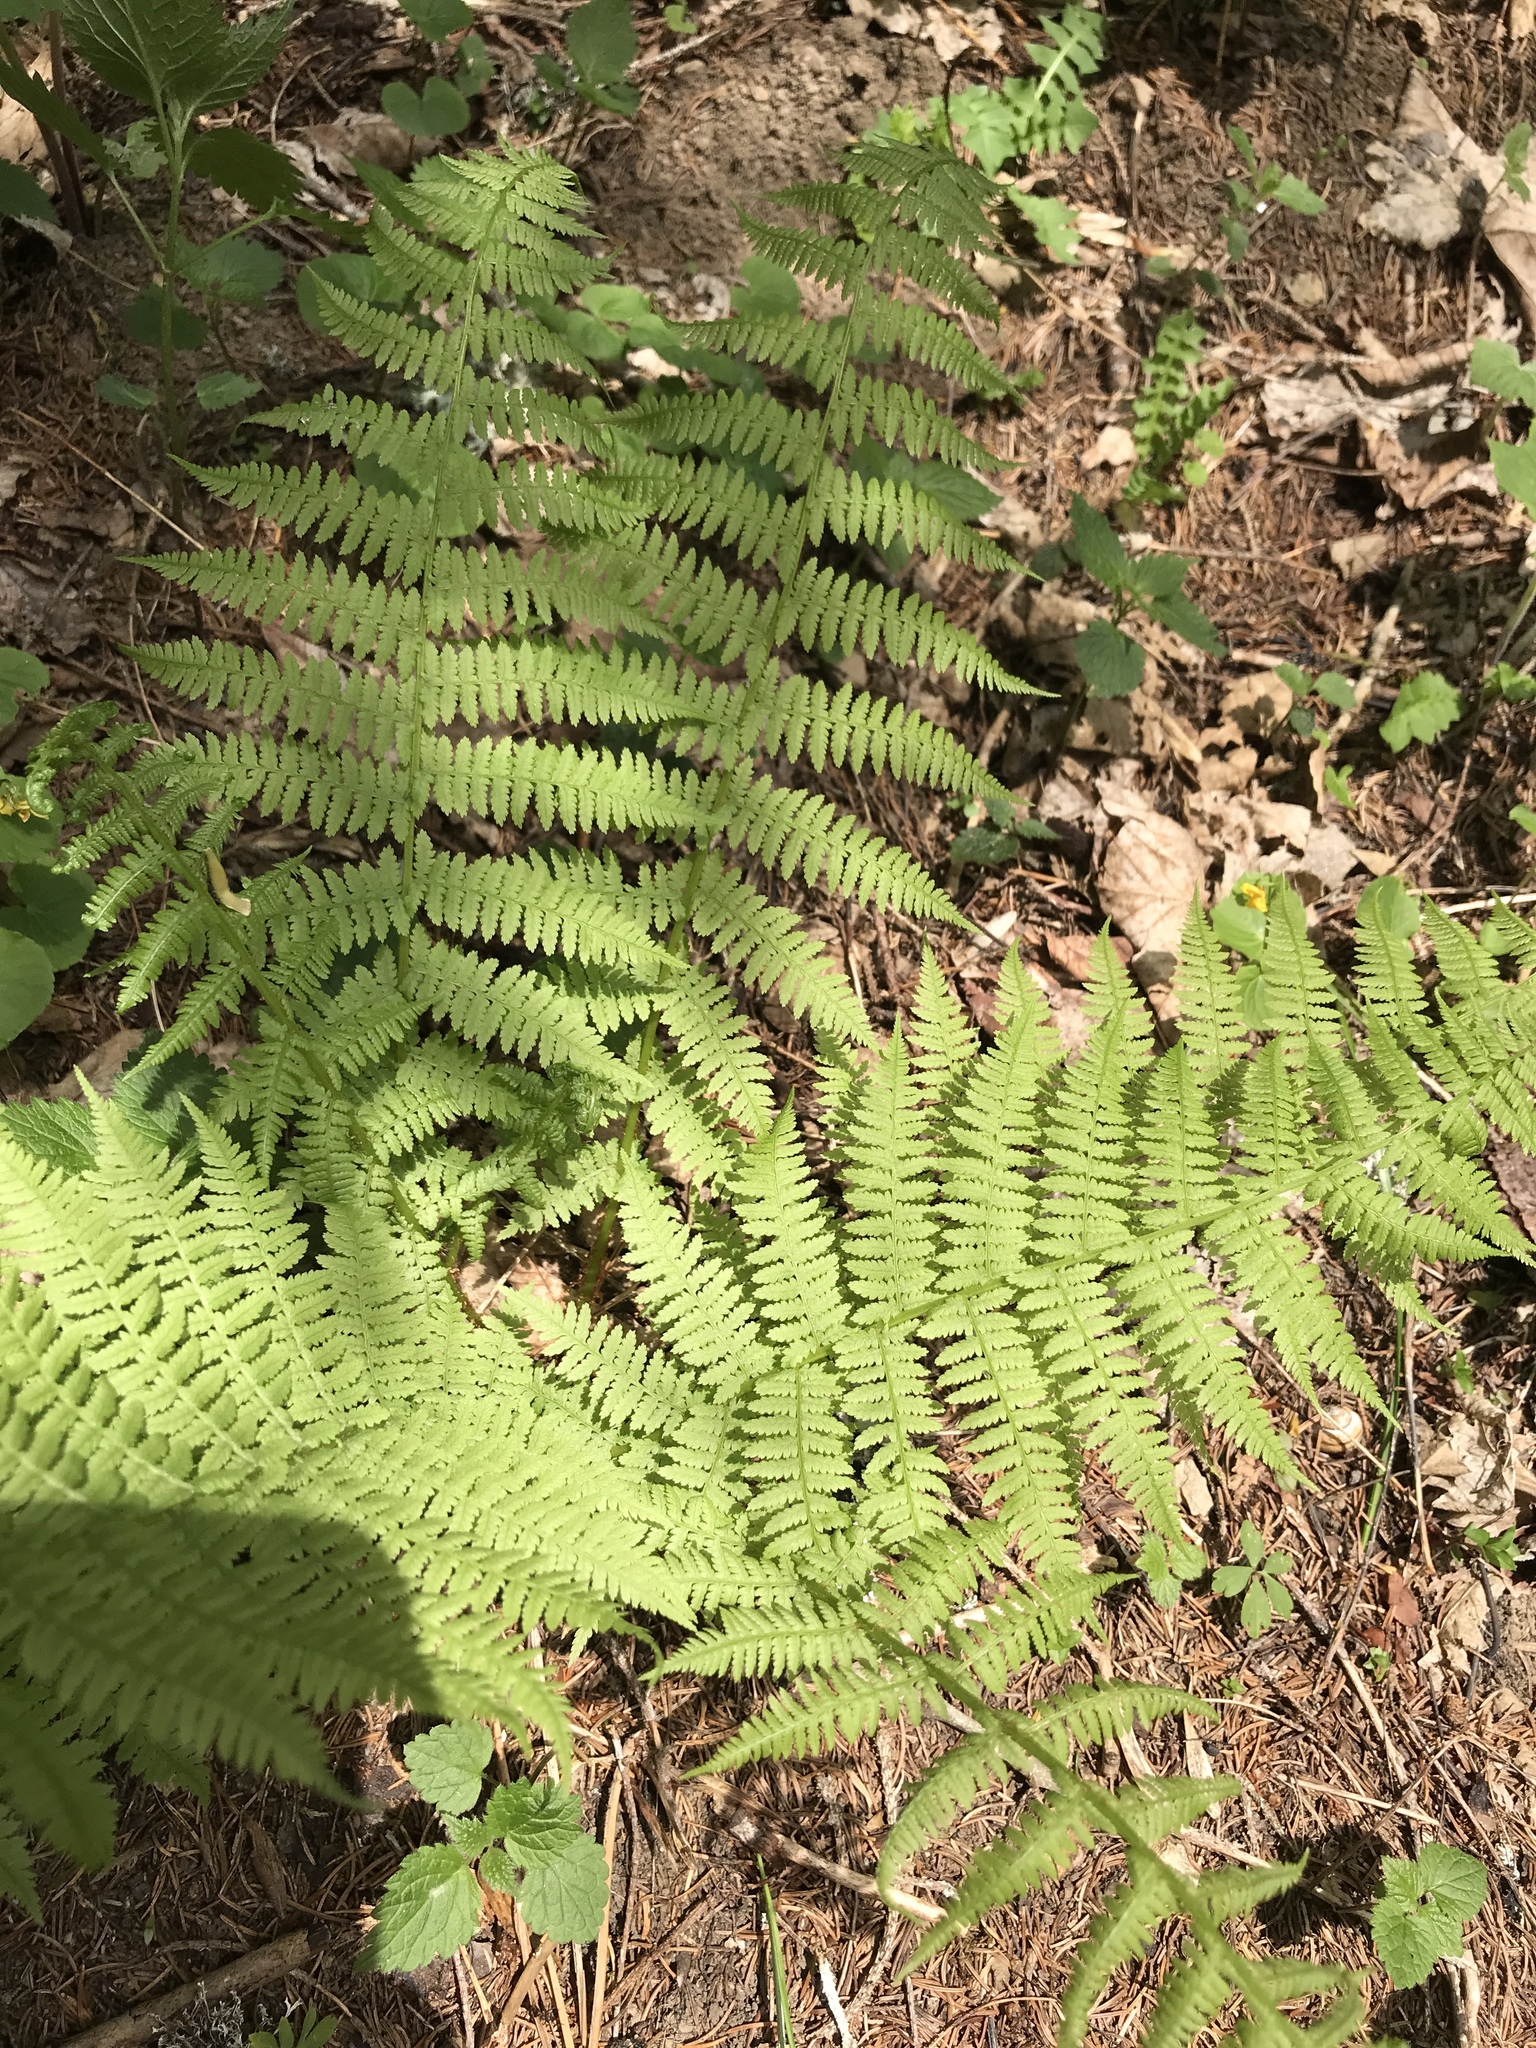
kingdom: Plantae
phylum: Tracheophyta
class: Polypodiopsida
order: Polypodiales
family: Athyriaceae
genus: Athyrium
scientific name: Athyrium filix-femina
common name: Lady fern
